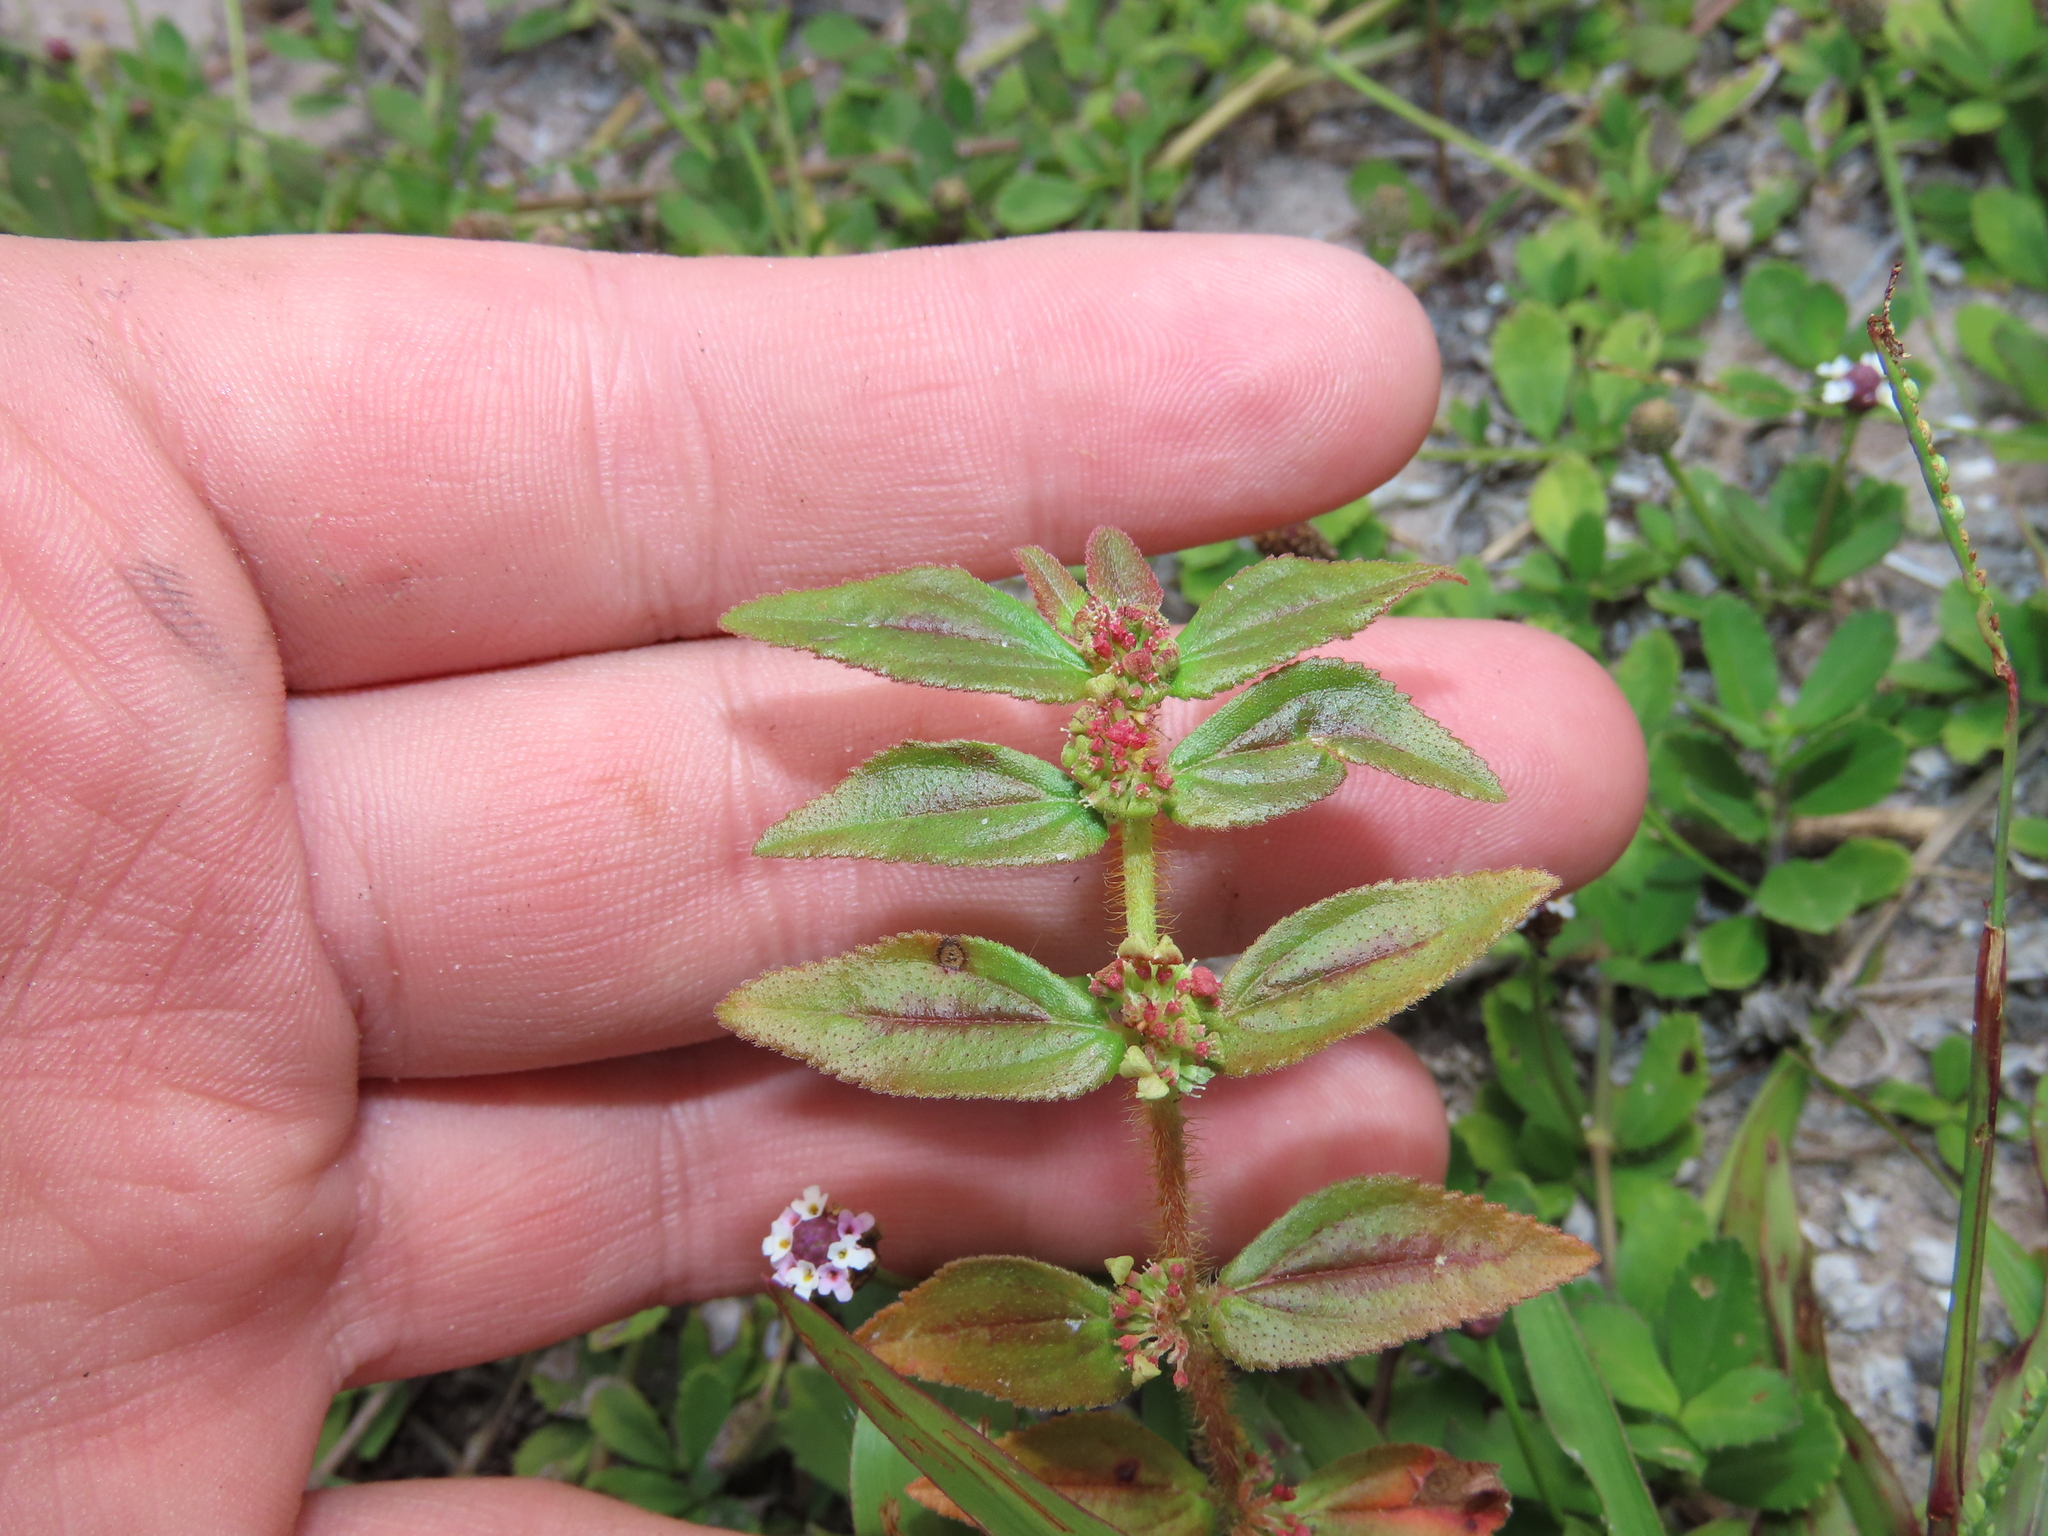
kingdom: Plantae
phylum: Tracheophyta
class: Magnoliopsida
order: Malpighiales
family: Euphorbiaceae
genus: Euphorbia
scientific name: Euphorbia hirta
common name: Pillpod sandmat
